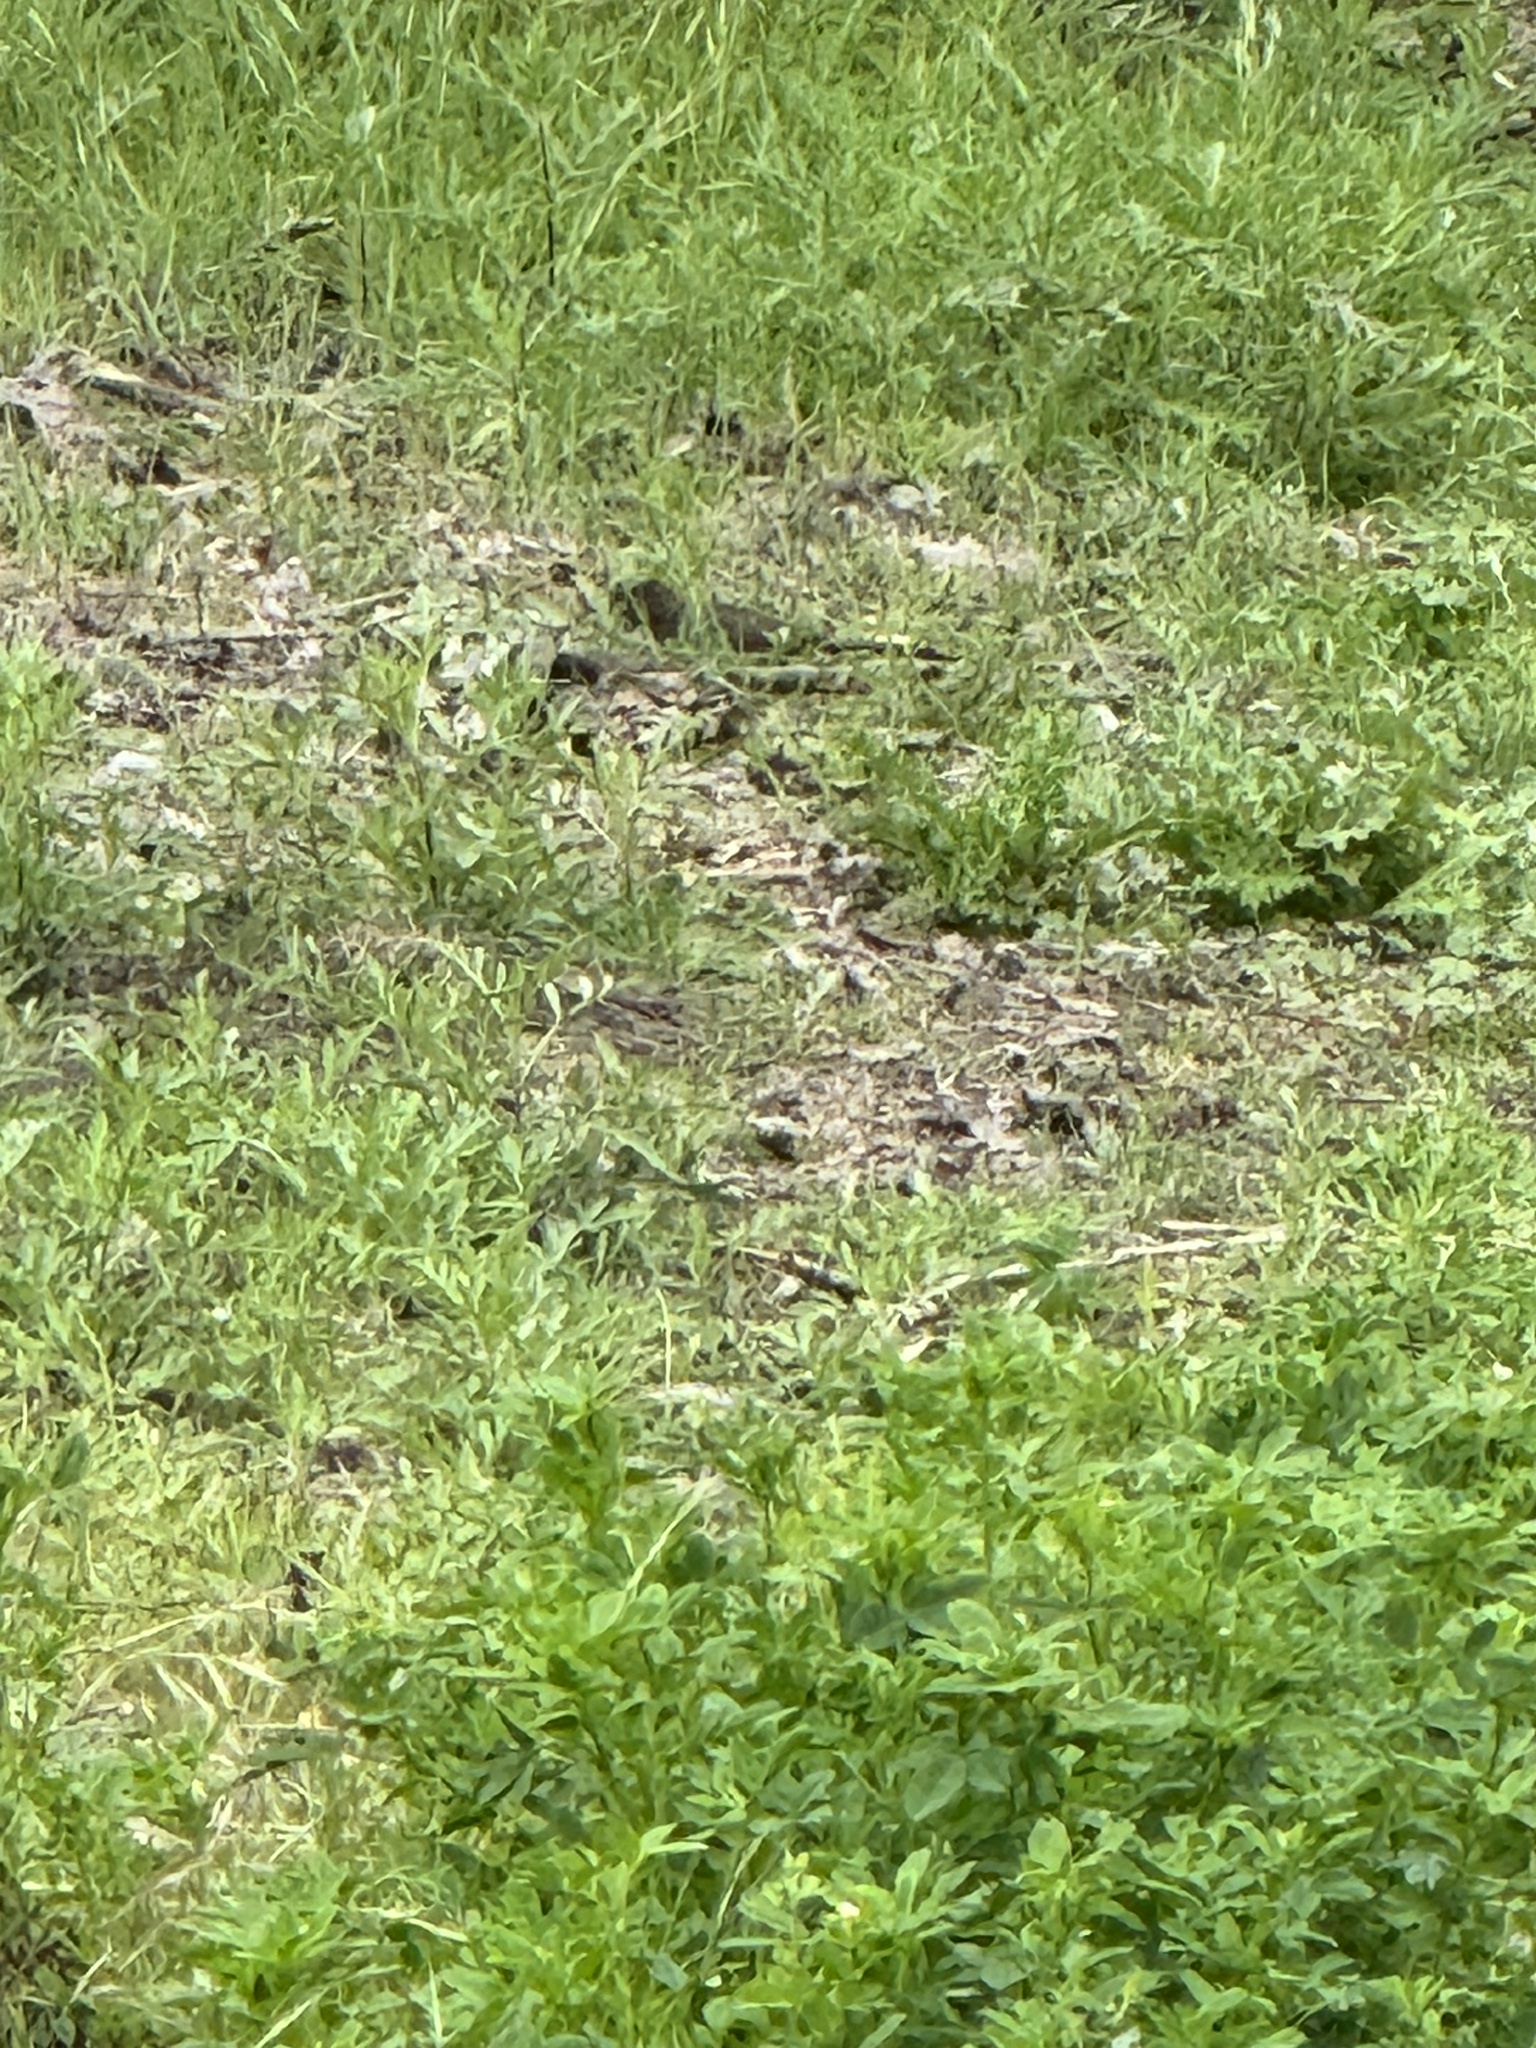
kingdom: Animalia
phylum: Chordata
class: Aves
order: Passeriformes
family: Passerellidae
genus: Melozone
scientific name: Melozone crissalis
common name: California towhee
